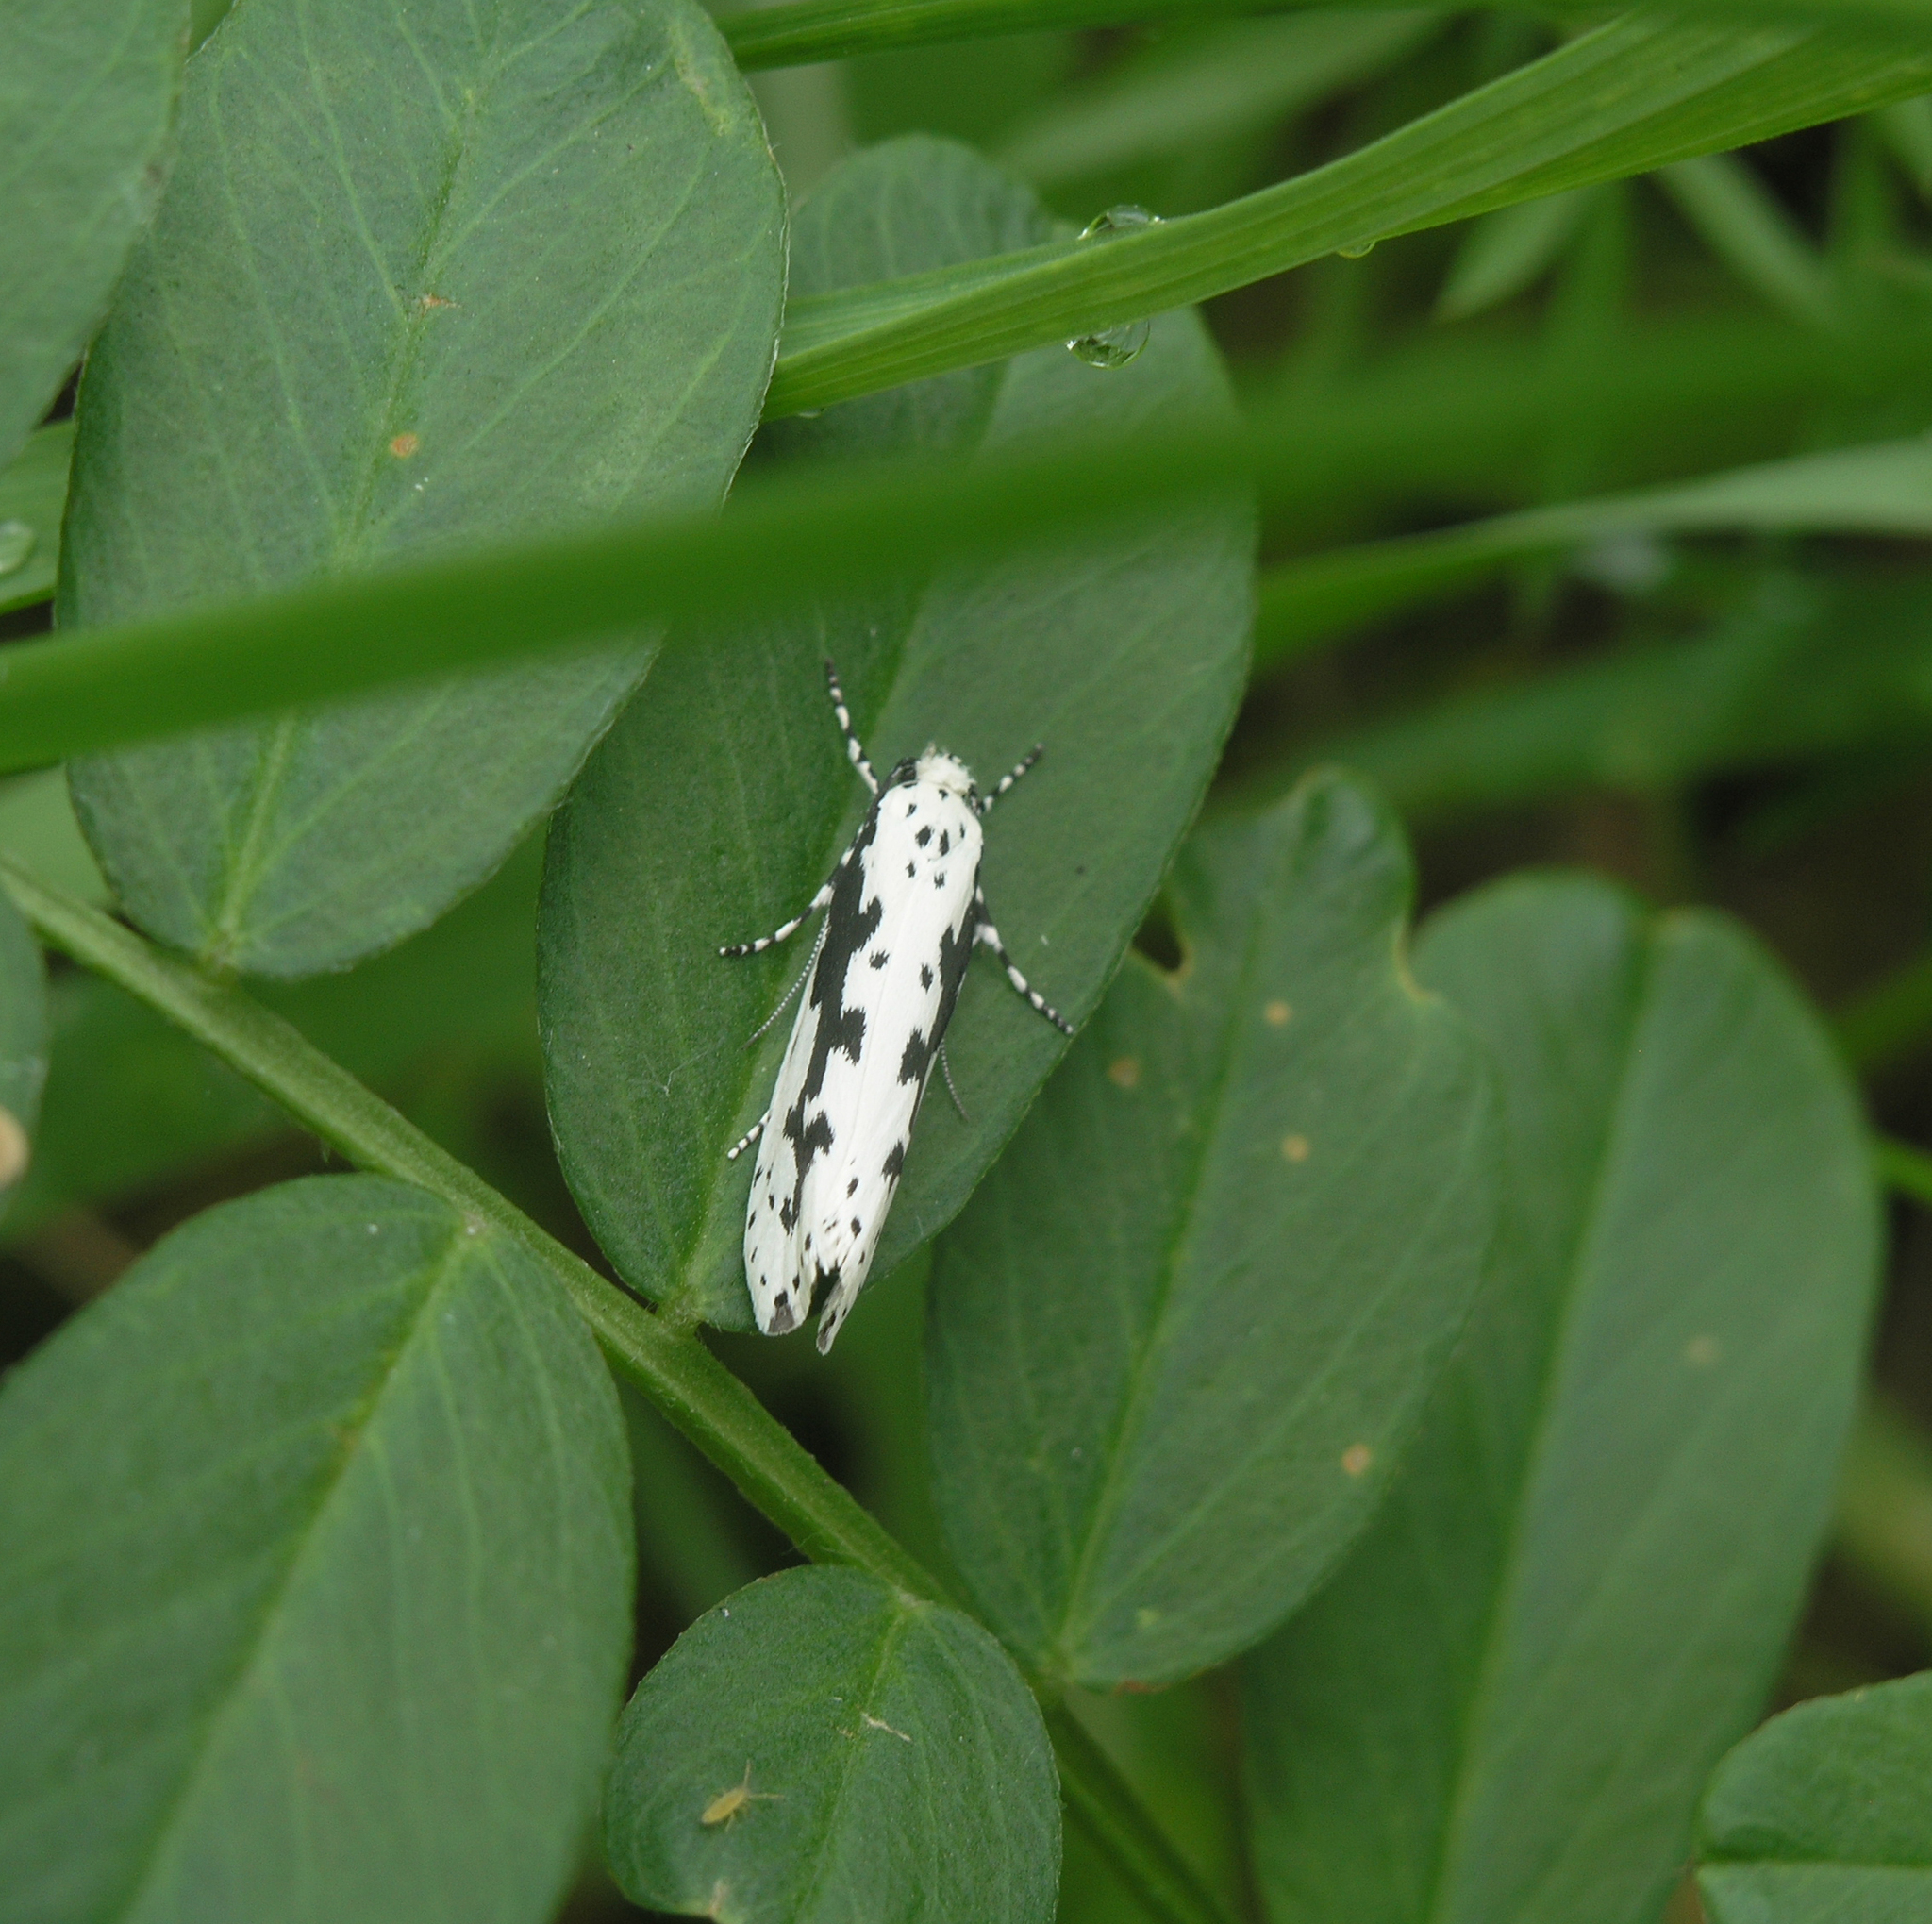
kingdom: Animalia
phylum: Arthropoda
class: Insecta
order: Lepidoptera
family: Ethmiidae
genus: Ethmia
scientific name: Ethmia pusiella
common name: Striped ermel
